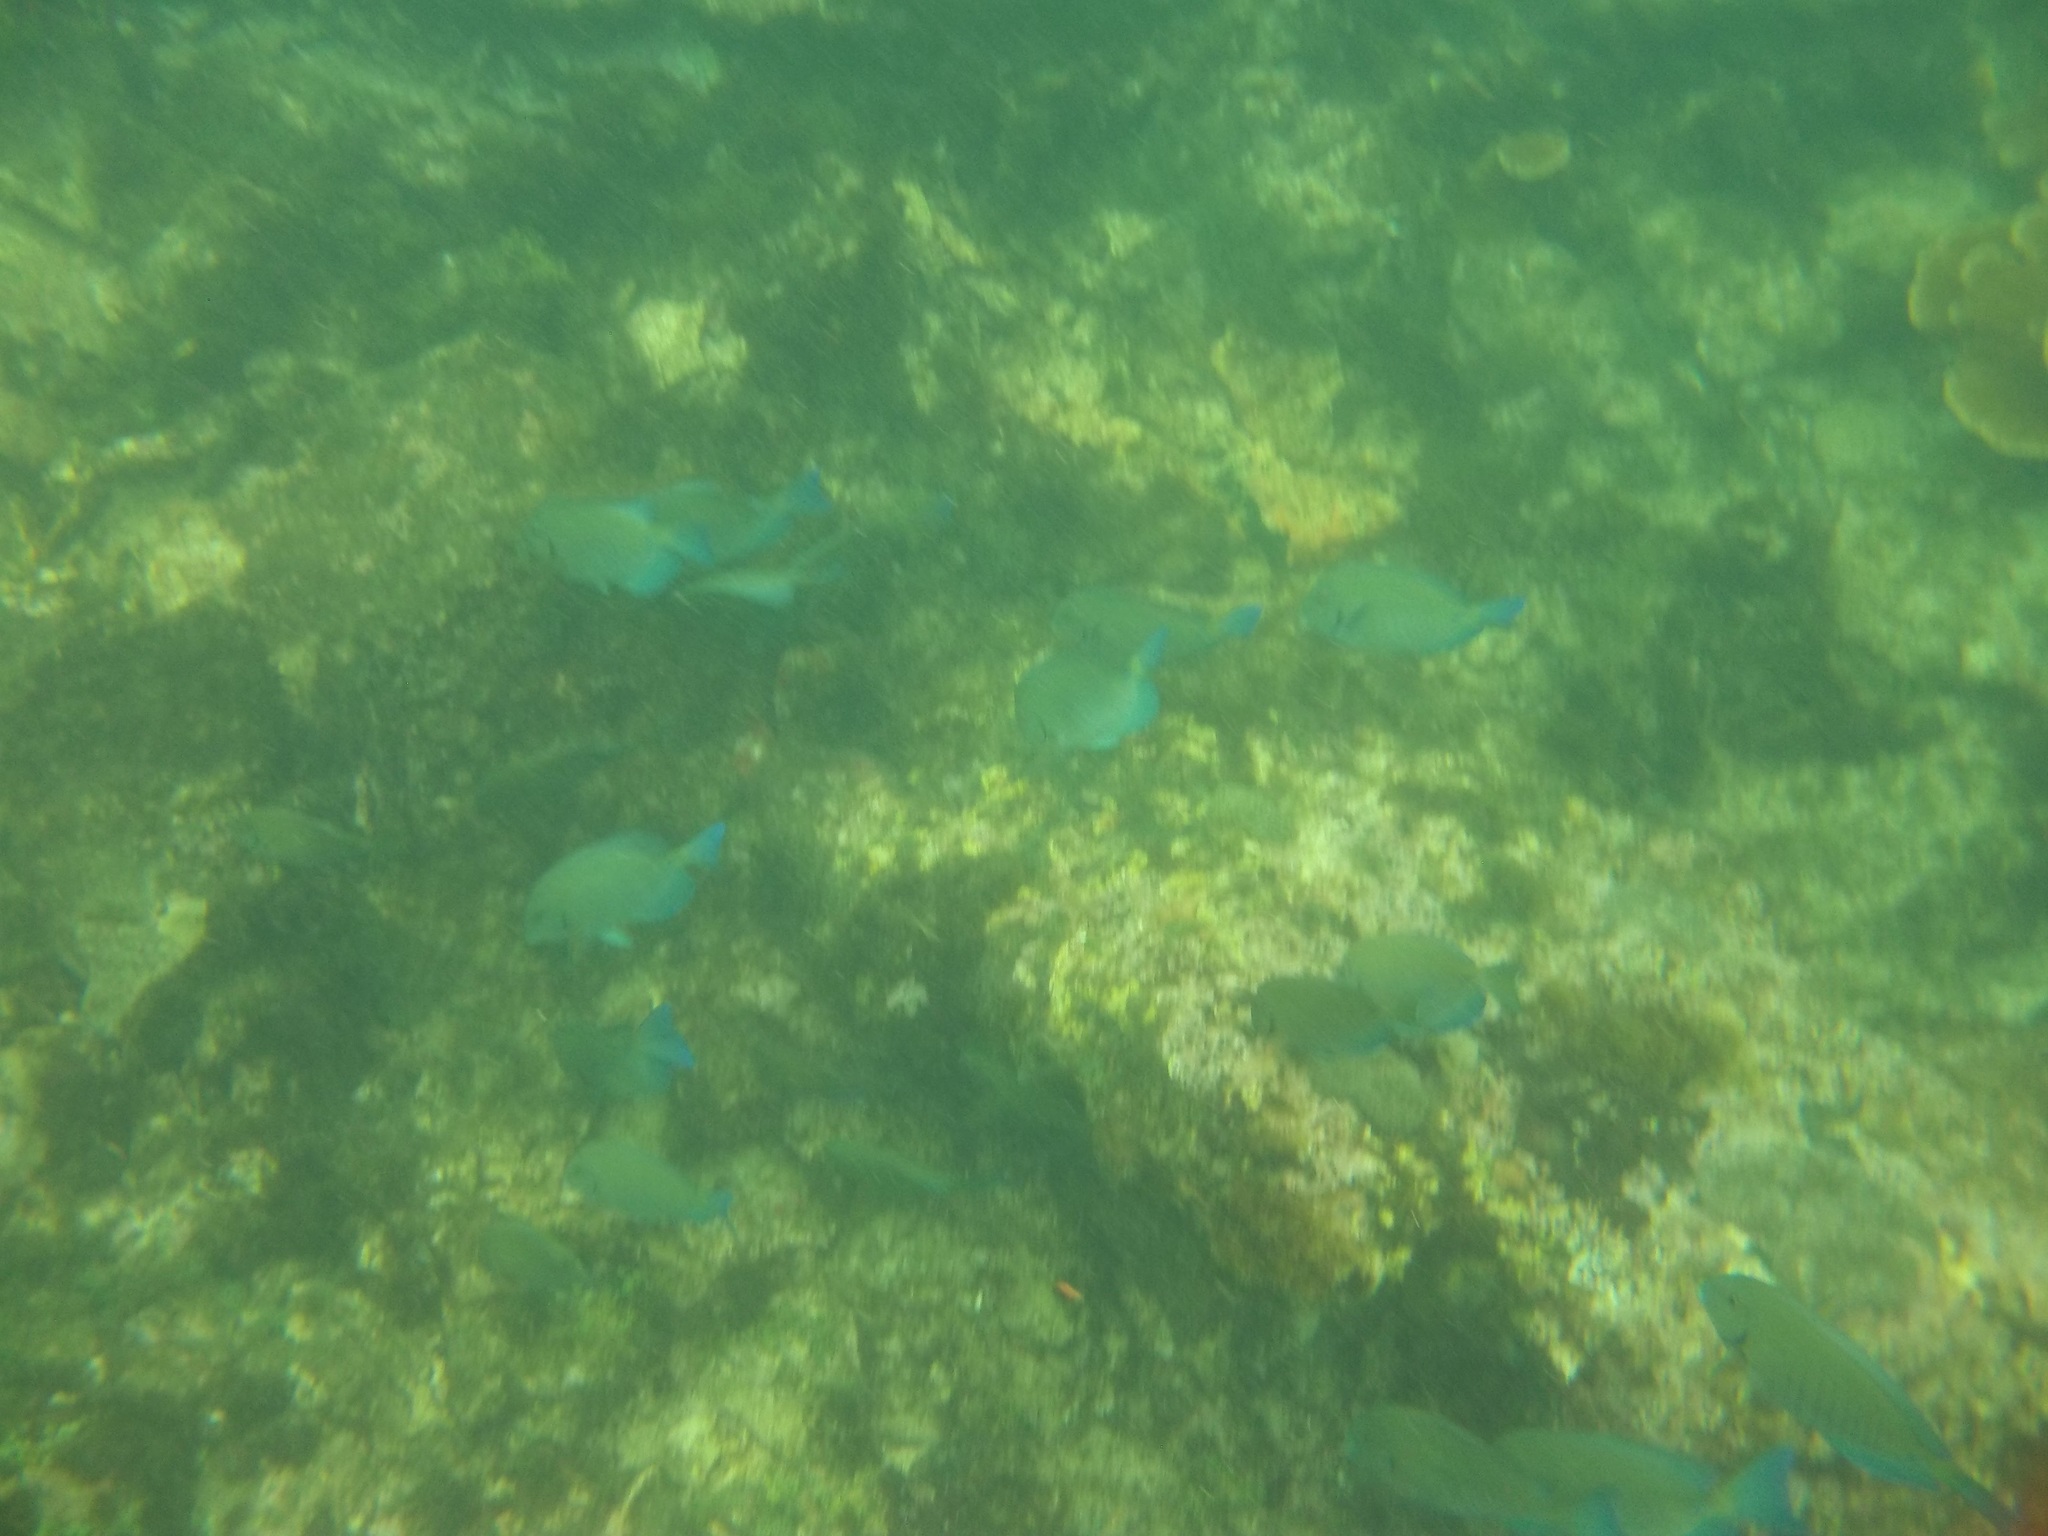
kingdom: Animalia
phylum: Chordata
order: Perciformes
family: Acanthuridae
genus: Acanthurus
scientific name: Acanthurus chirurgus
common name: Doctorfish
